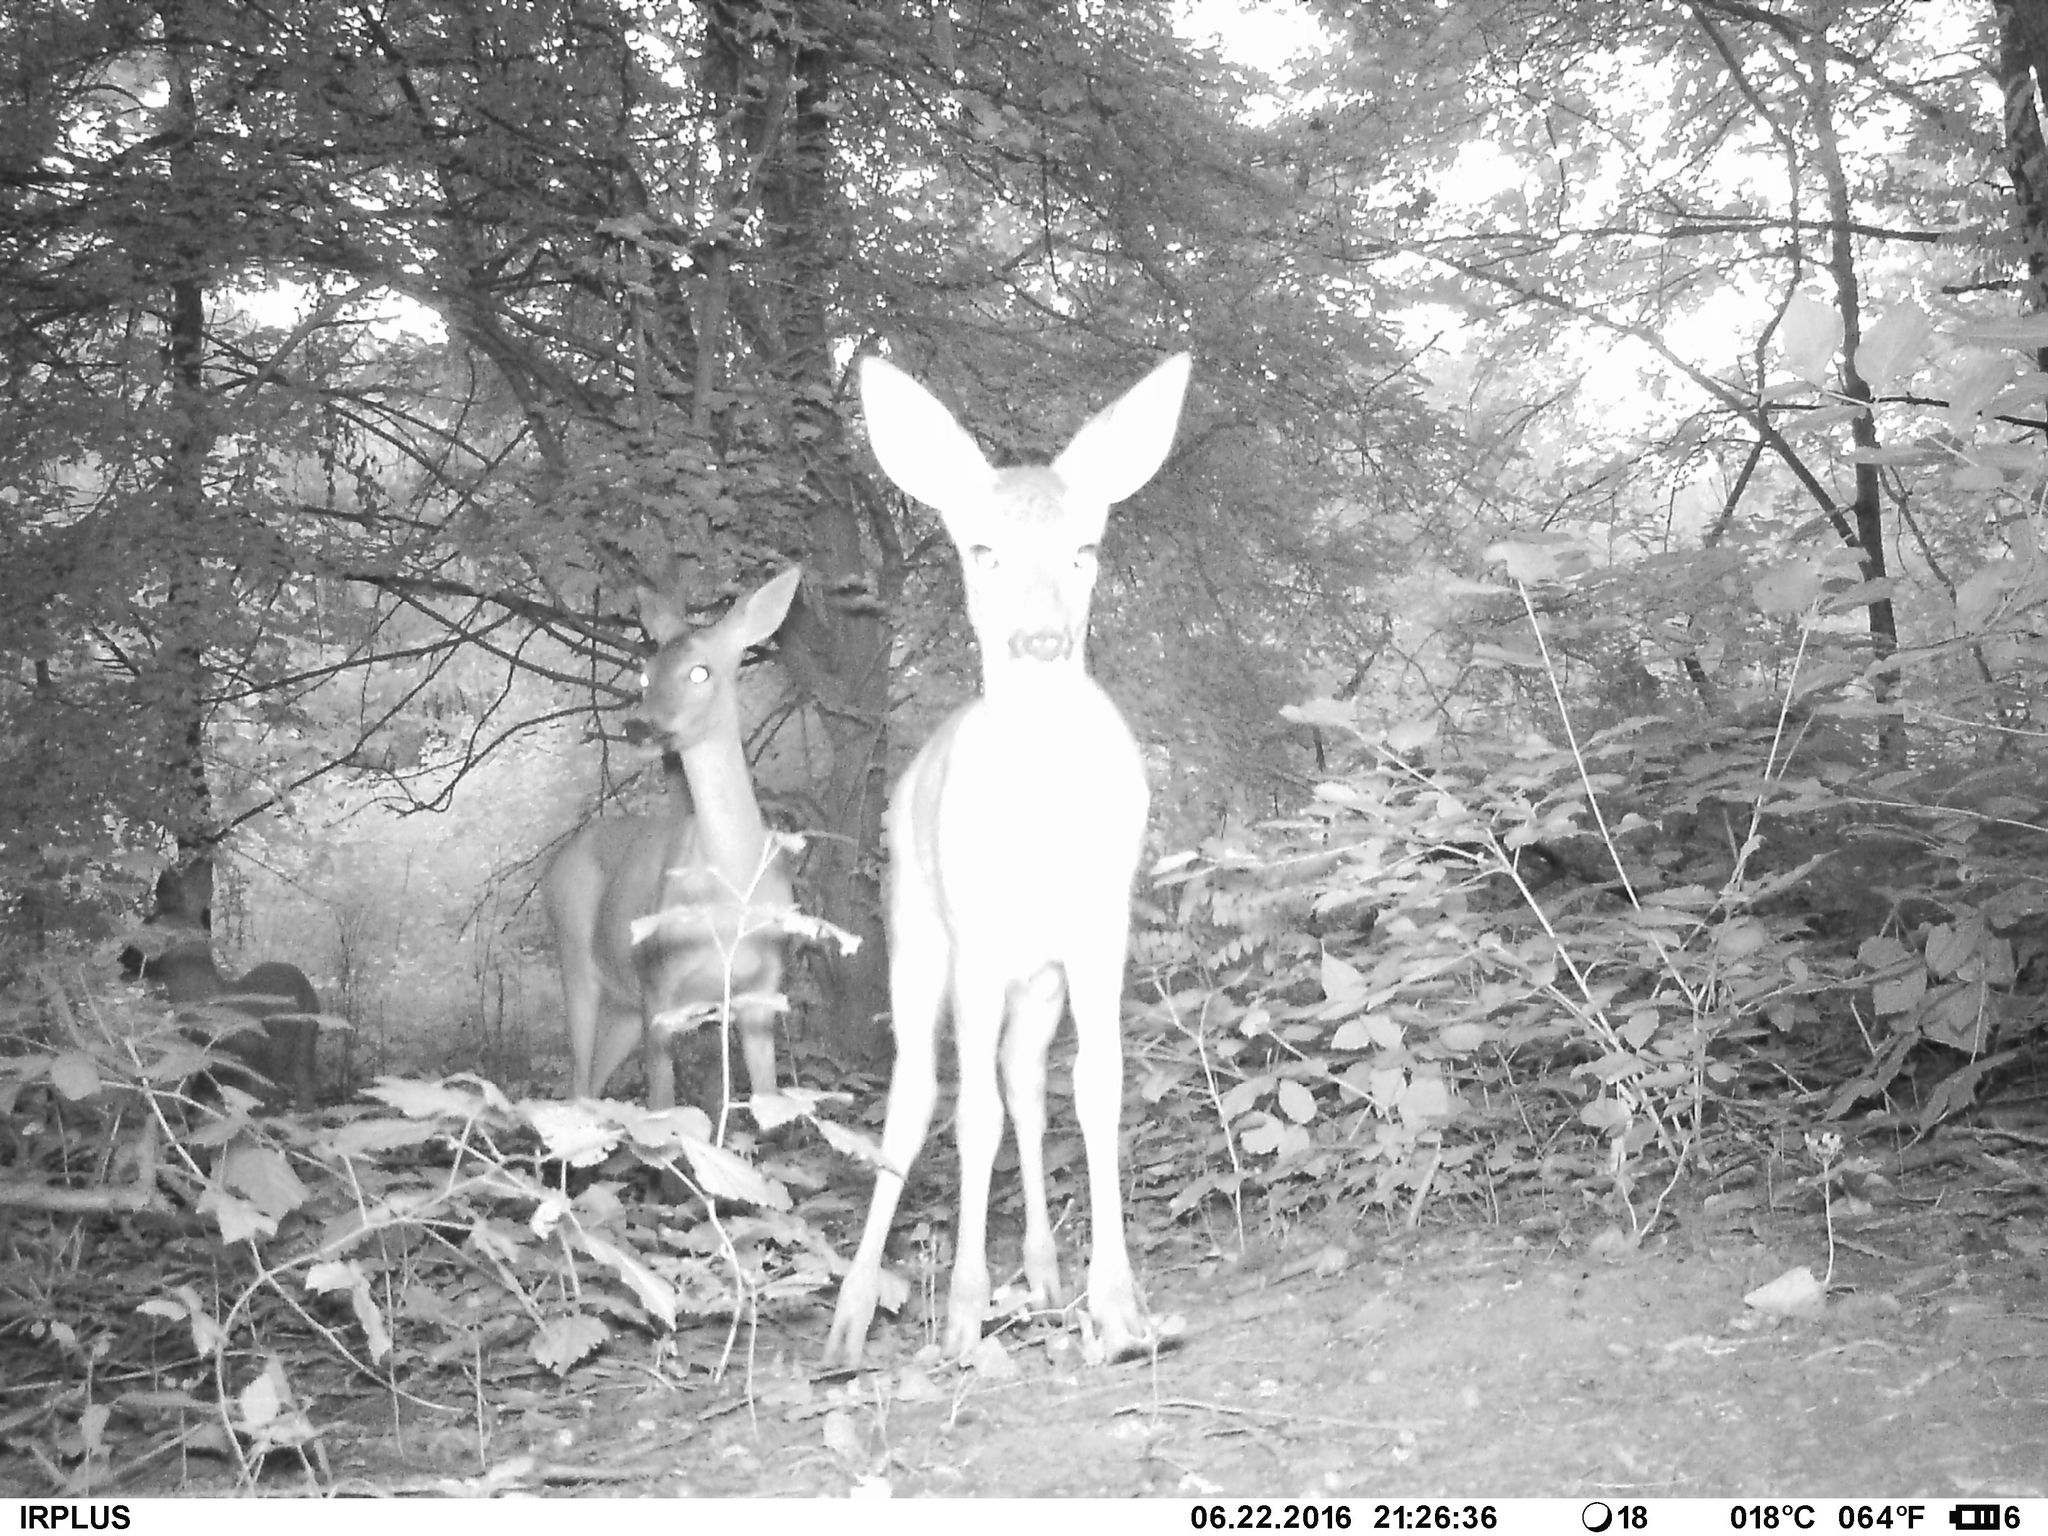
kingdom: Animalia
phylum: Chordata
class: Mammalia
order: Artiodactyla
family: Cervidae
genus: Capreolus
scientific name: Capreolus capreolus
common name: Western roe deer
